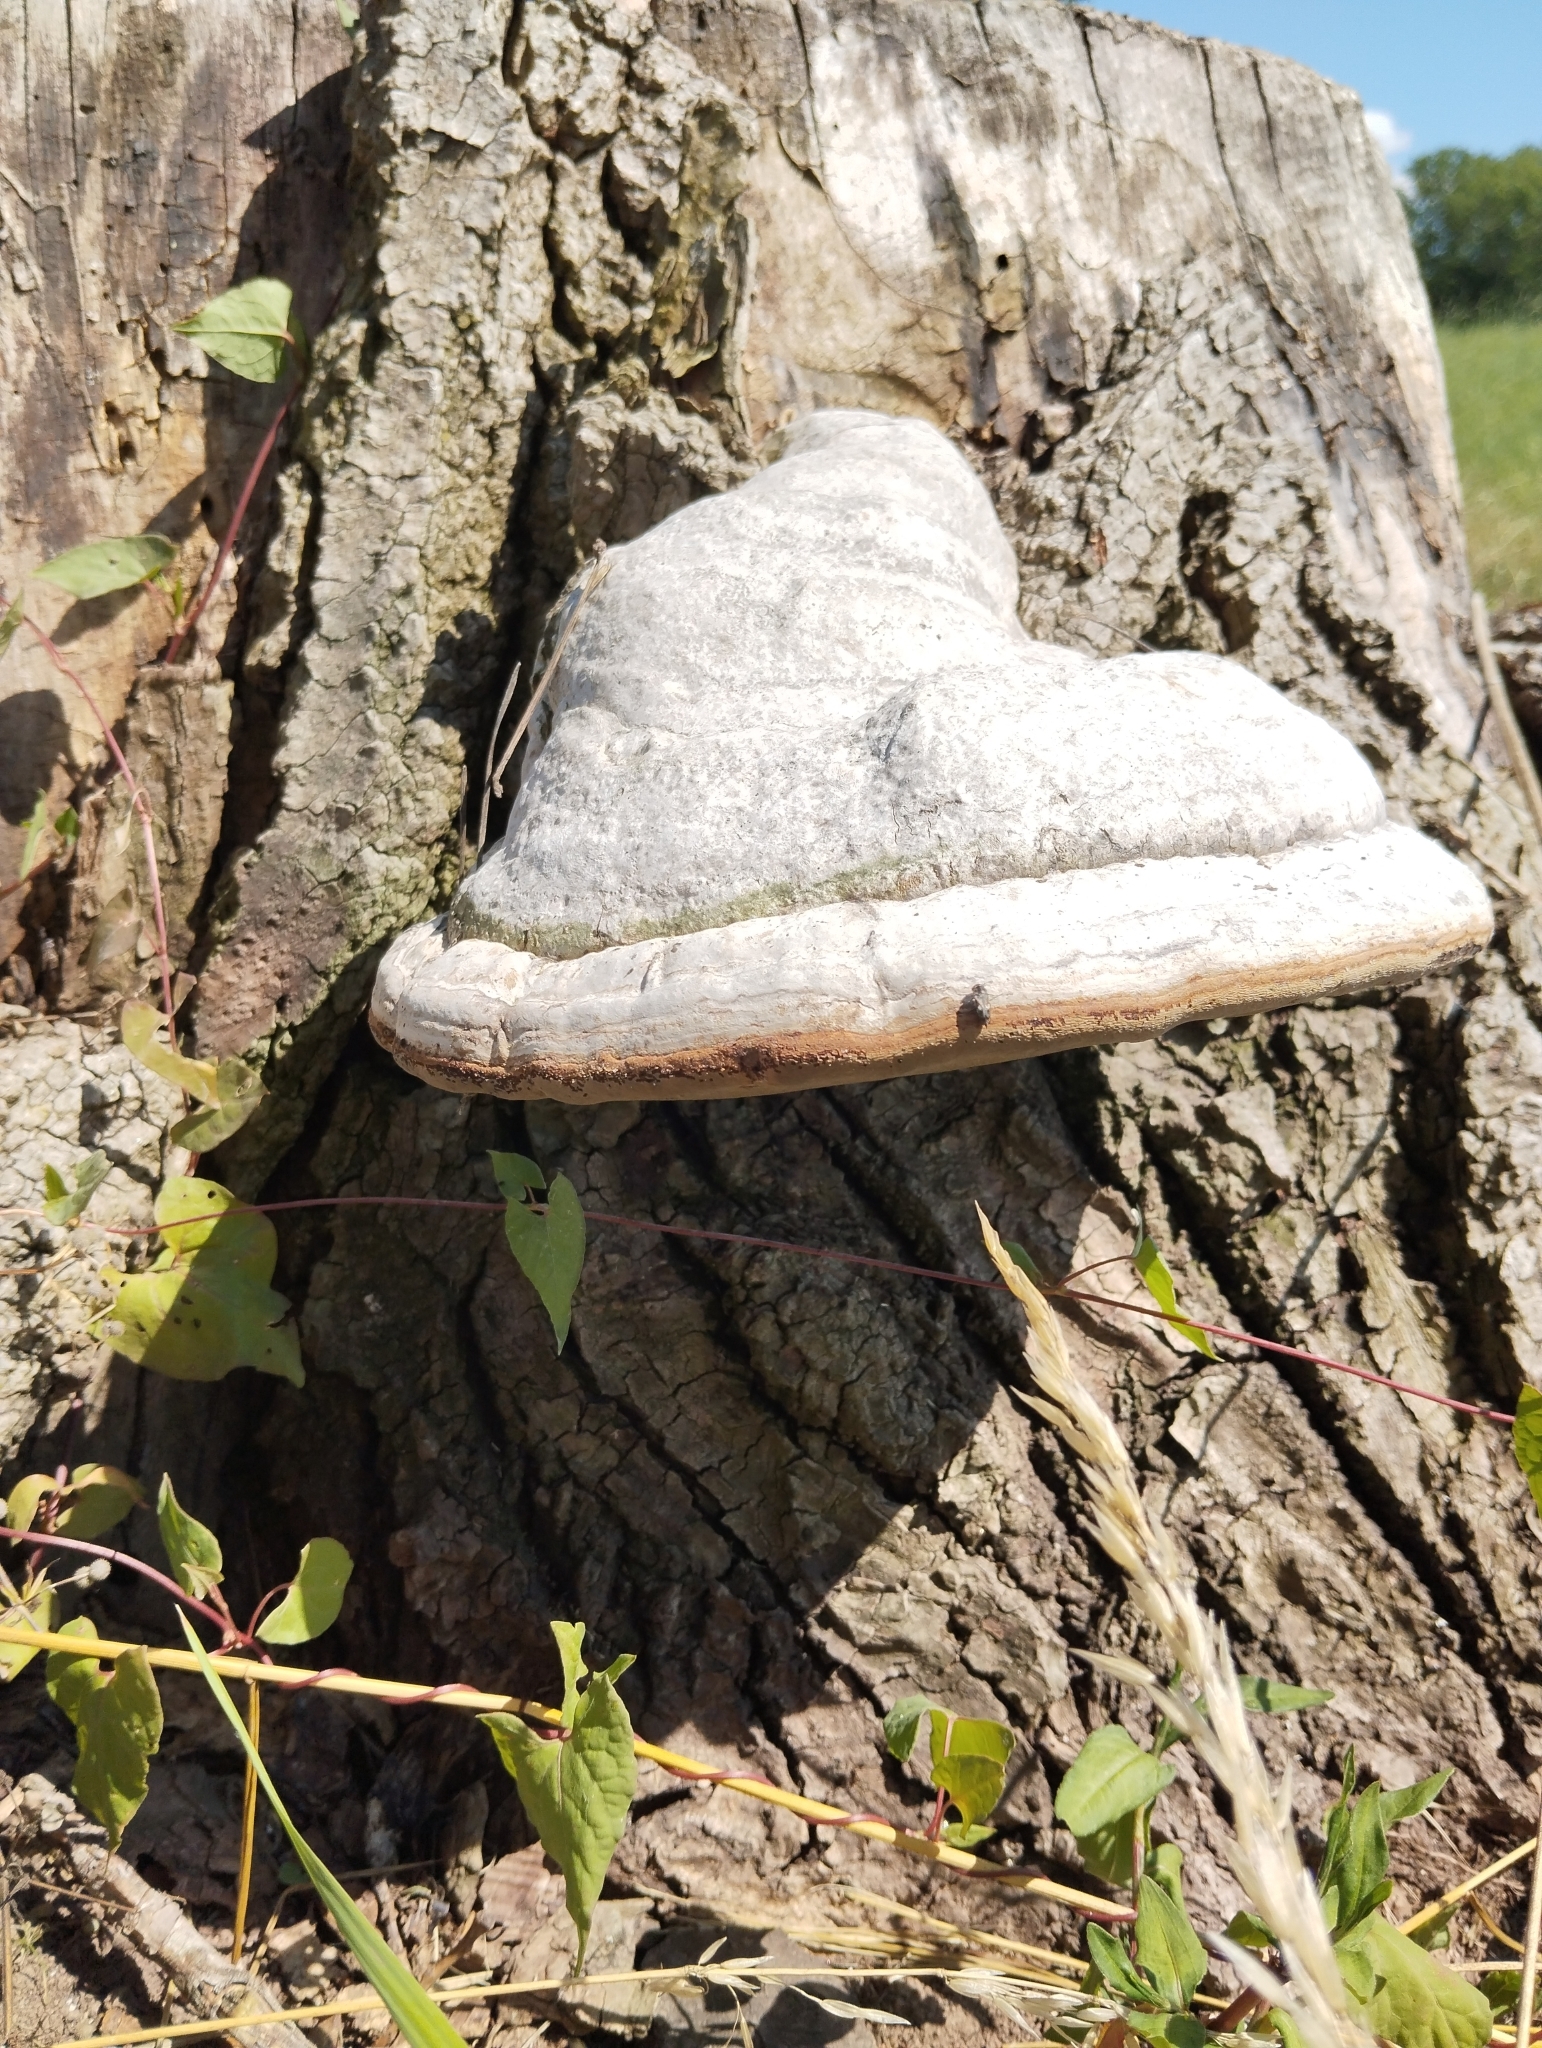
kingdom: Fungi
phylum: Basidiomycota
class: Agaricomycetes
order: Polyporales
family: Polyporaceae
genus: Fomes
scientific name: Fomes fomentarius
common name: Hoof fungus
